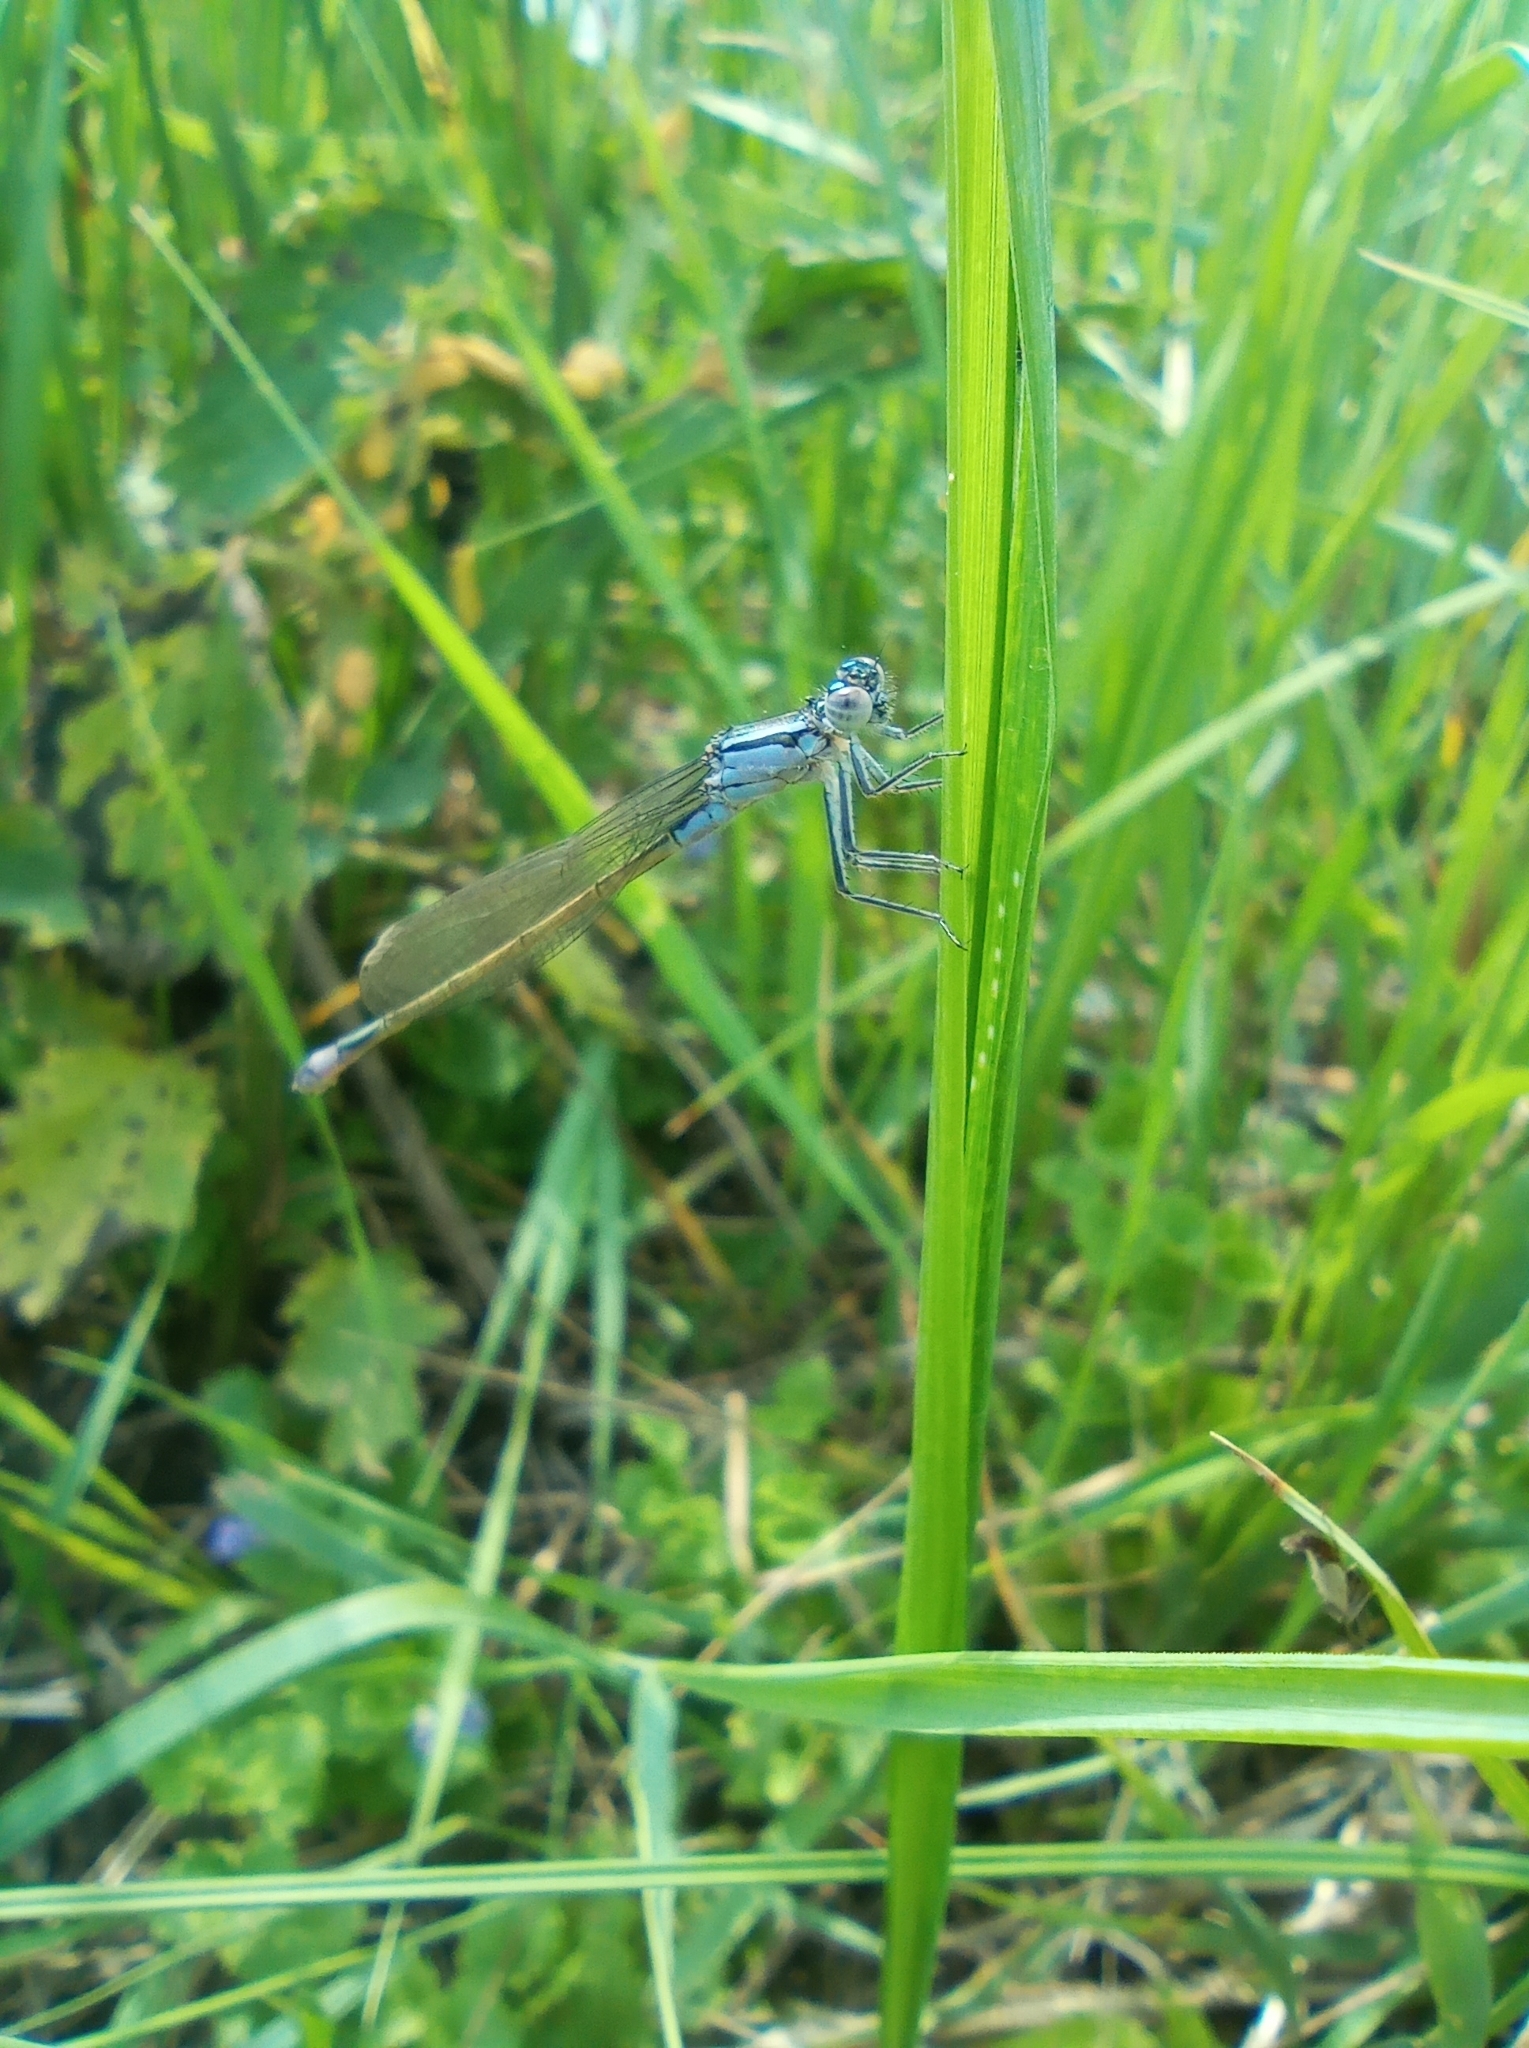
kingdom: Animalia
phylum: Arthropoda
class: Insecta
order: Odonata
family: Coenagrionidae
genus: Ischnura
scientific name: Ischnura elegans
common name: Blue-tailed damselfly
